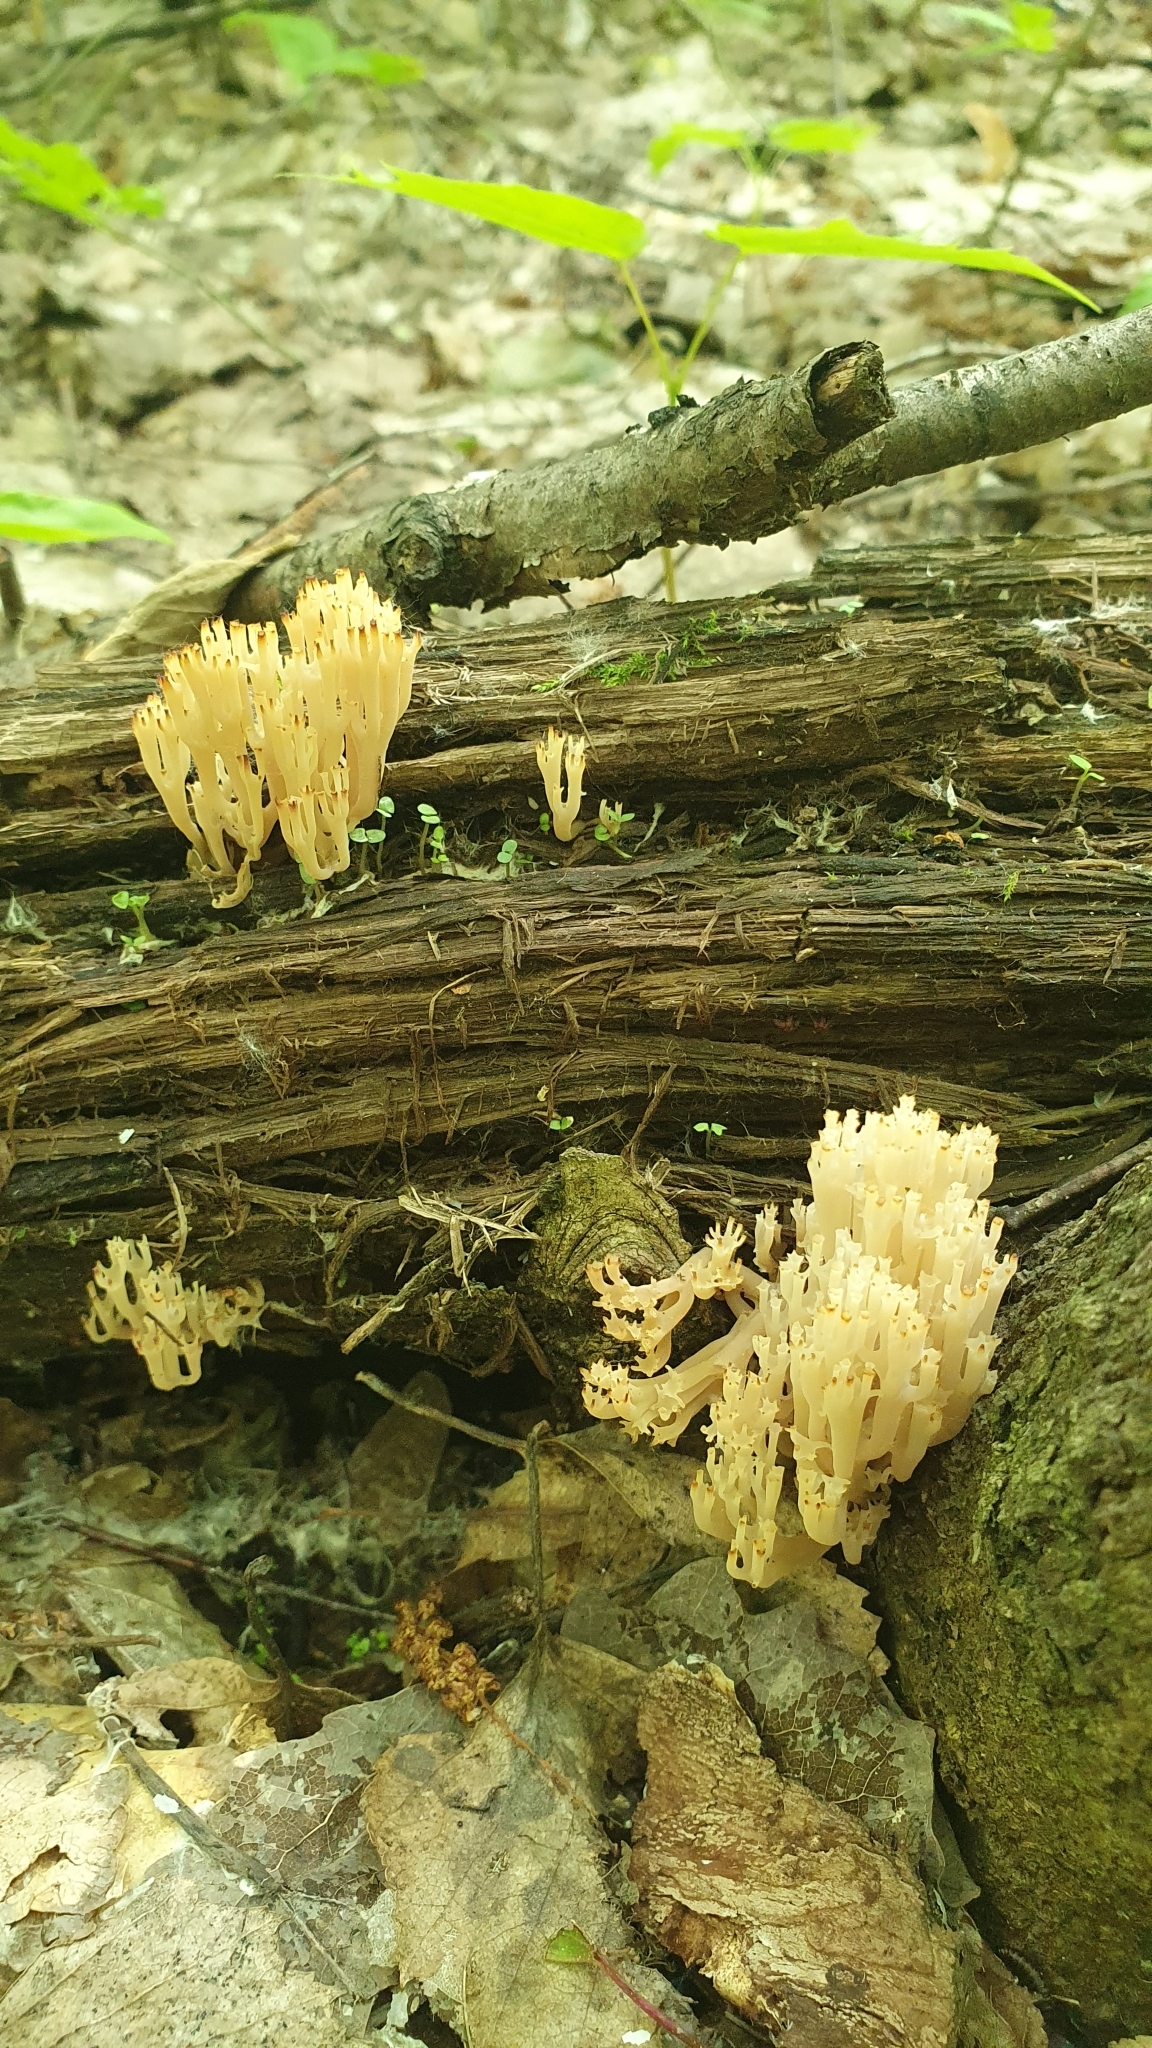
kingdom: Fungi
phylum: Basidiomycota
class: Agaricomycetes
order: Russulales
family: Auriscalpiaceae
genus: Artomyces
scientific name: Artomyces pyxidatus
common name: Crown-tipped coral fungus
